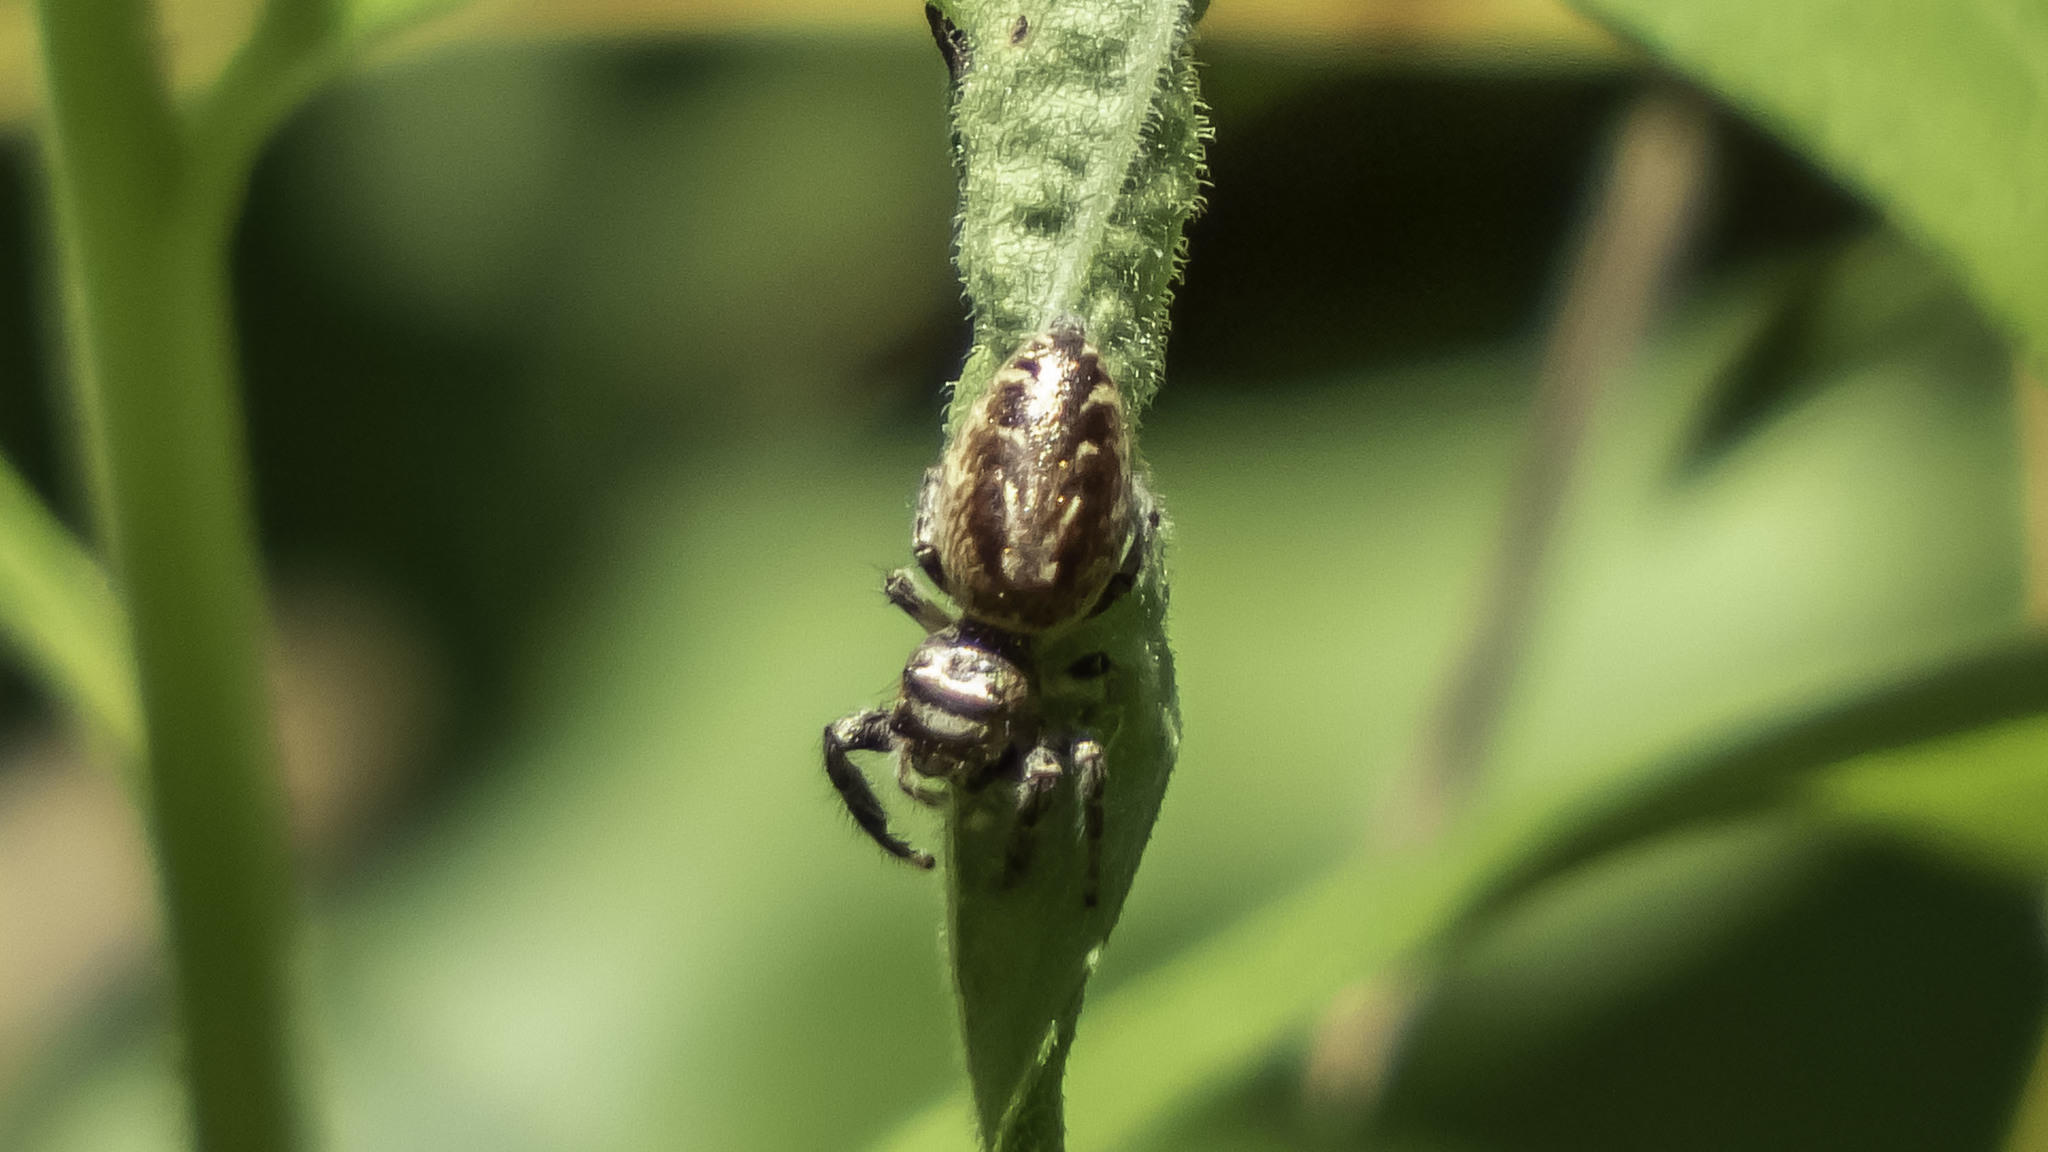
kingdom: Animalia
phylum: Arthropoda
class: Arachnida
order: Araneae
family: Salticidae
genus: Eris
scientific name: Eris militaris
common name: Bronze jumper
